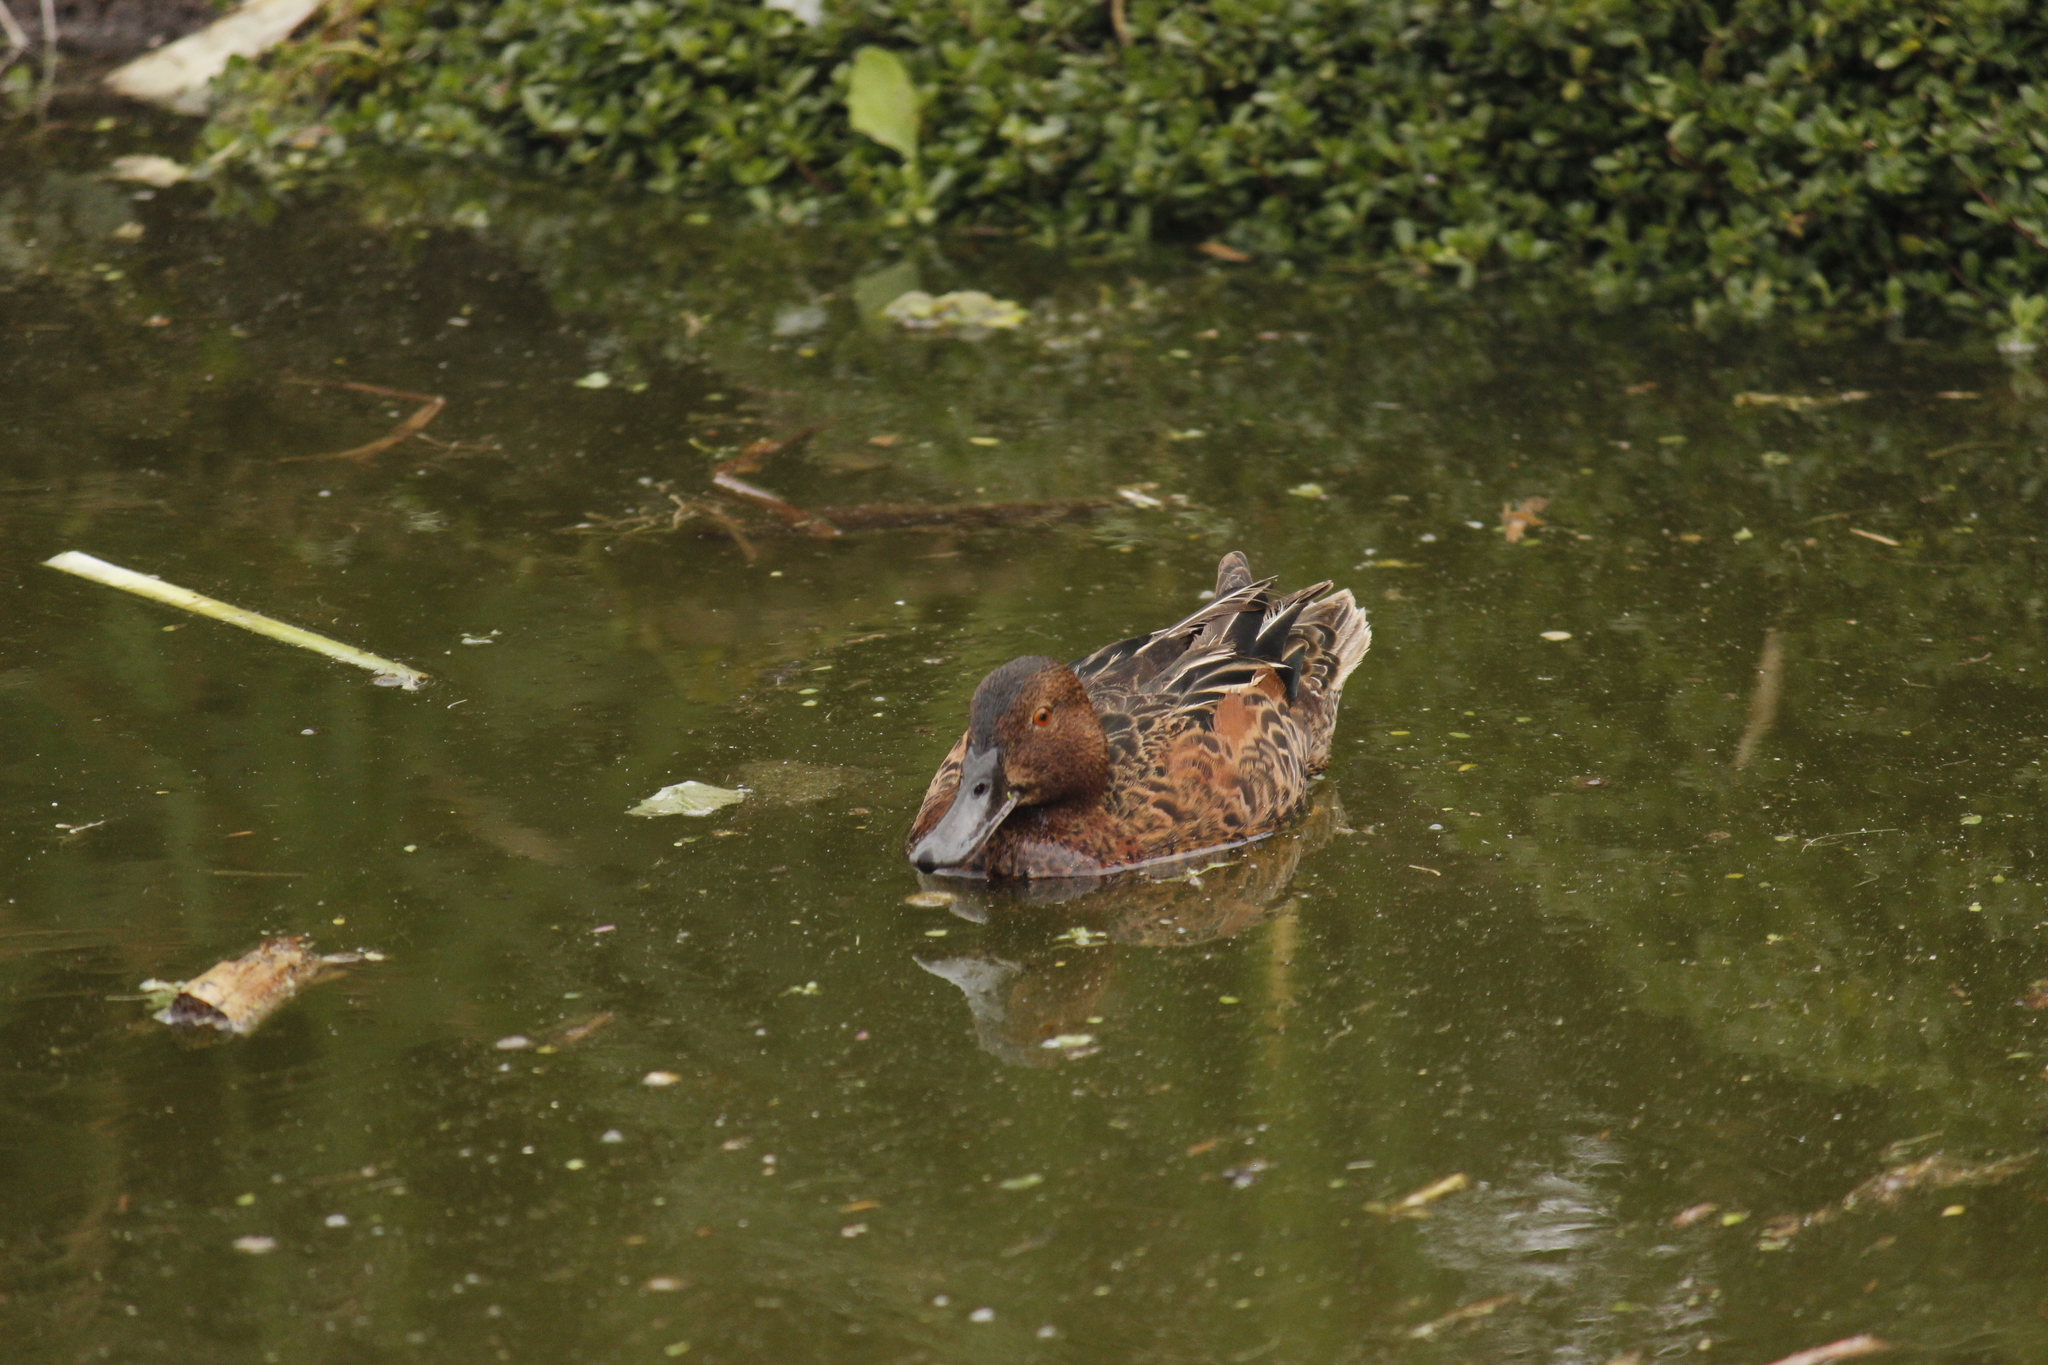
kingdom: Animalia
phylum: Chordata
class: Aves
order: Anseriformes
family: Anatidae
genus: Spatula
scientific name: Spatula cyanoptera
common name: Cinnamon teal
